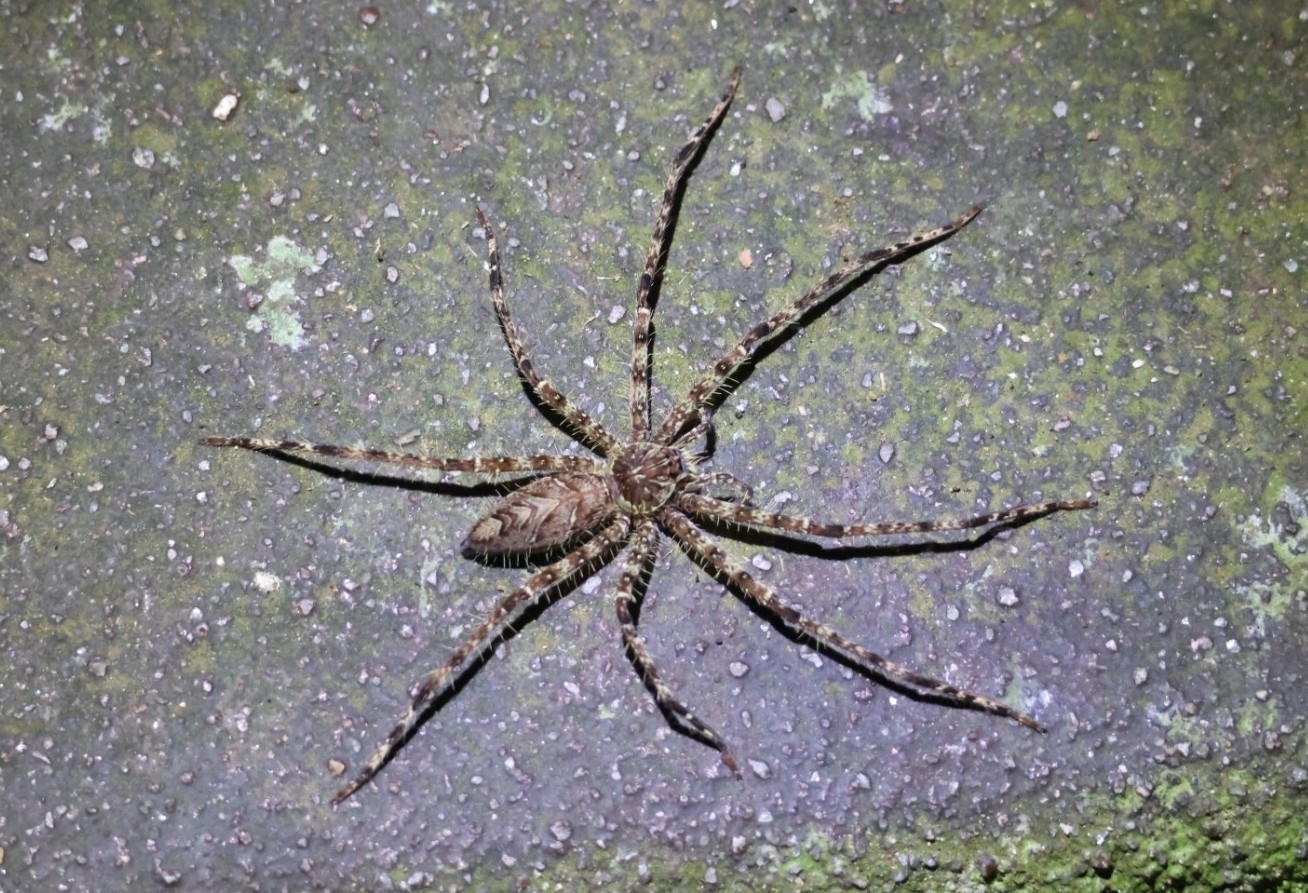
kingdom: Animalia
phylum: Arthropoda
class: Arachnida
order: Araneae
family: Sparassidae
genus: Heteropoda
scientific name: Heteropoda boiei
